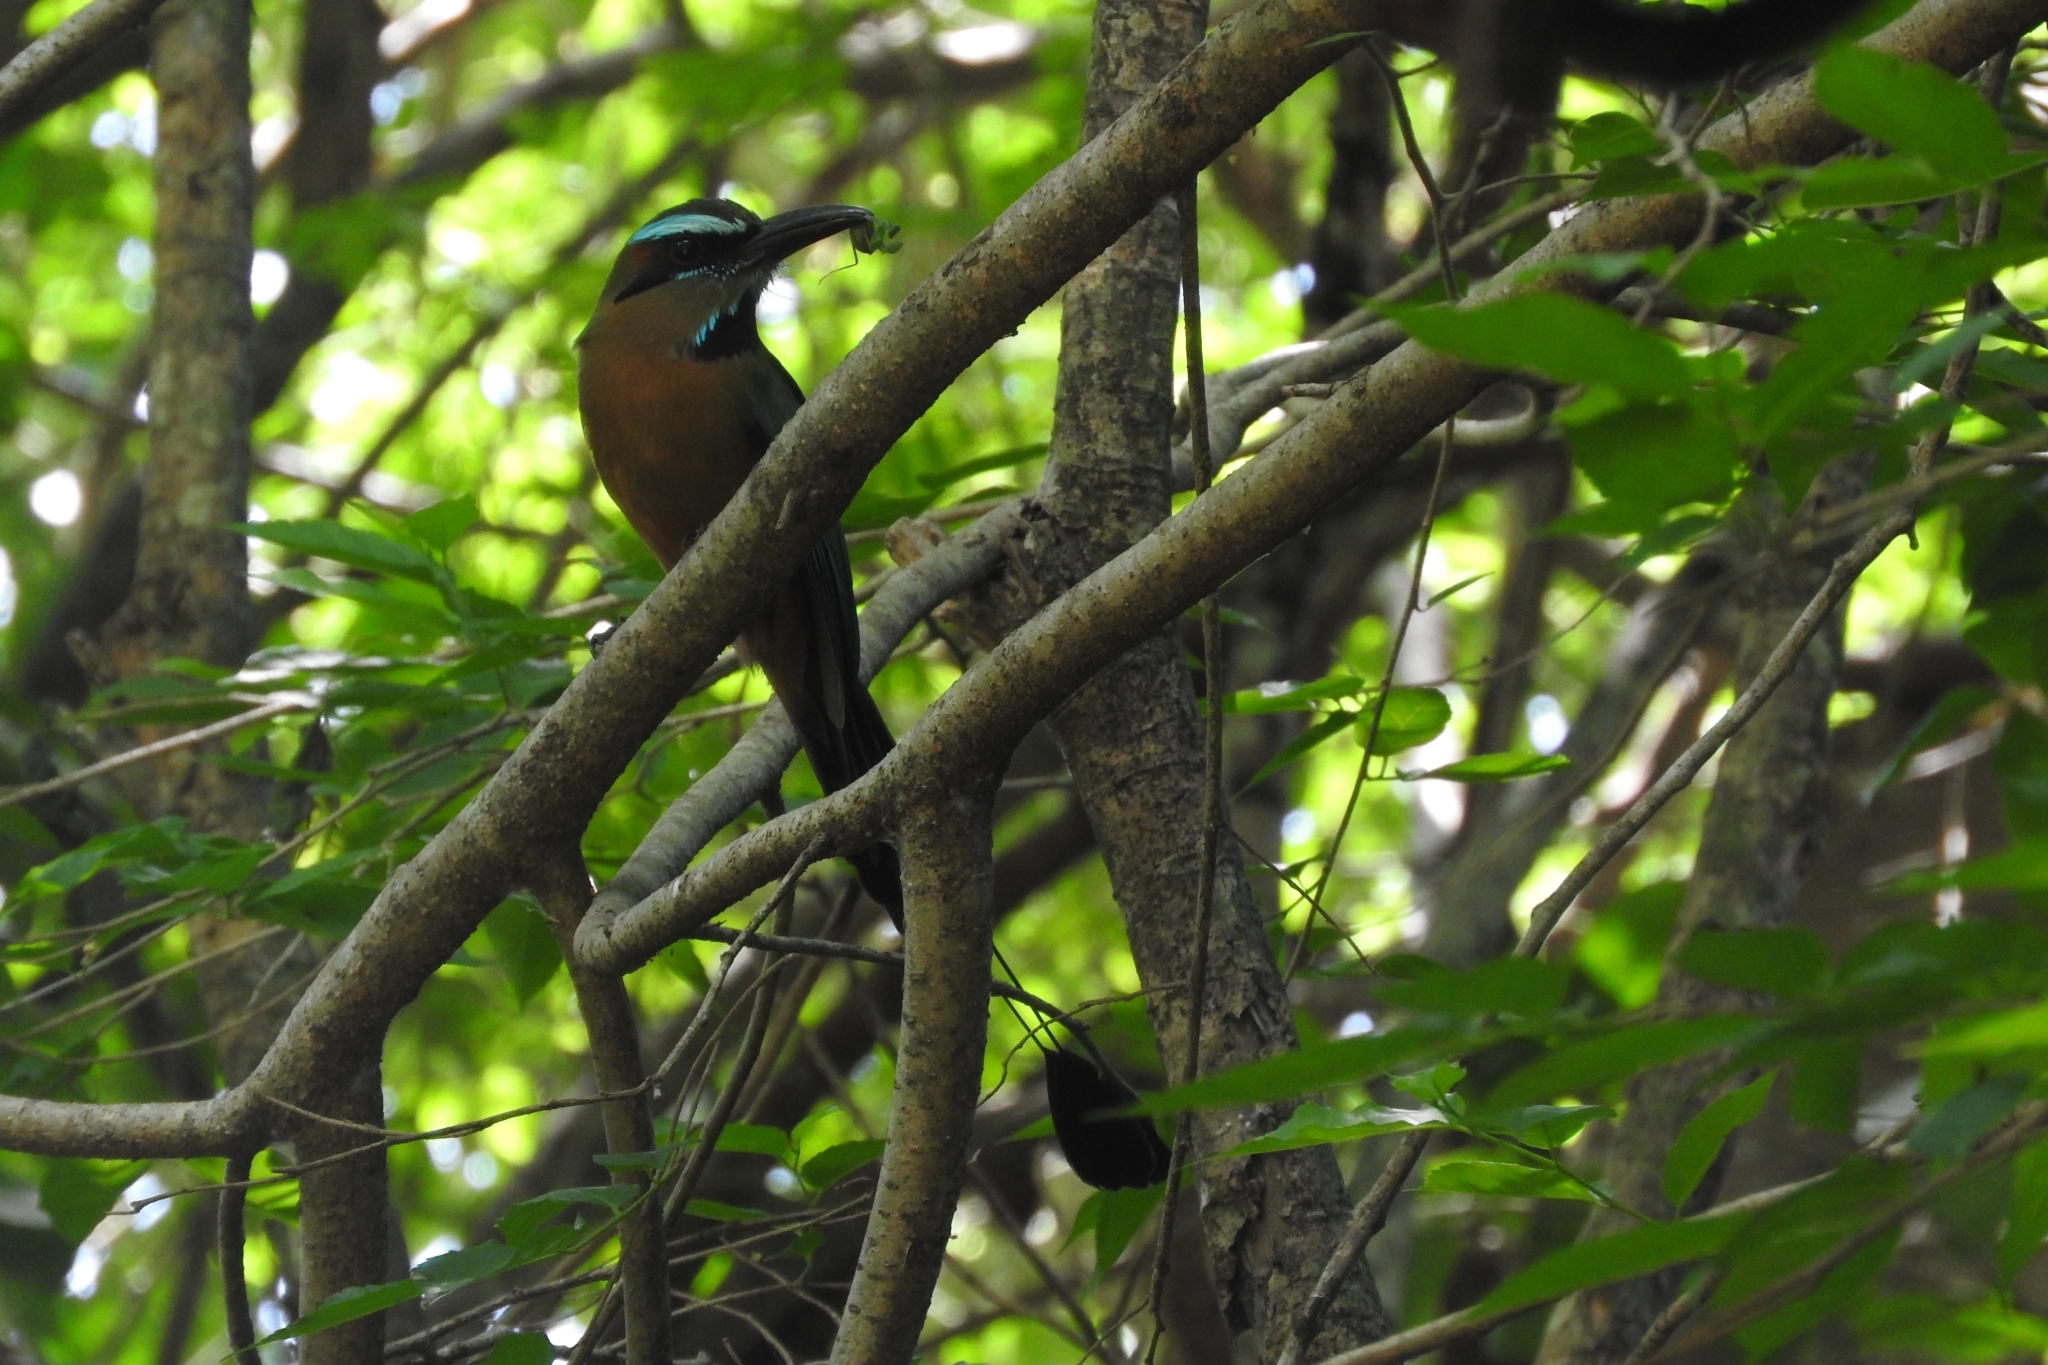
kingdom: Animalia
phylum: Chordata
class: Aves
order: Coraciiformes
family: Momotidae
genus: Eumomota
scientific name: Eumomota superciliosa
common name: Turquoise-browed motmot
